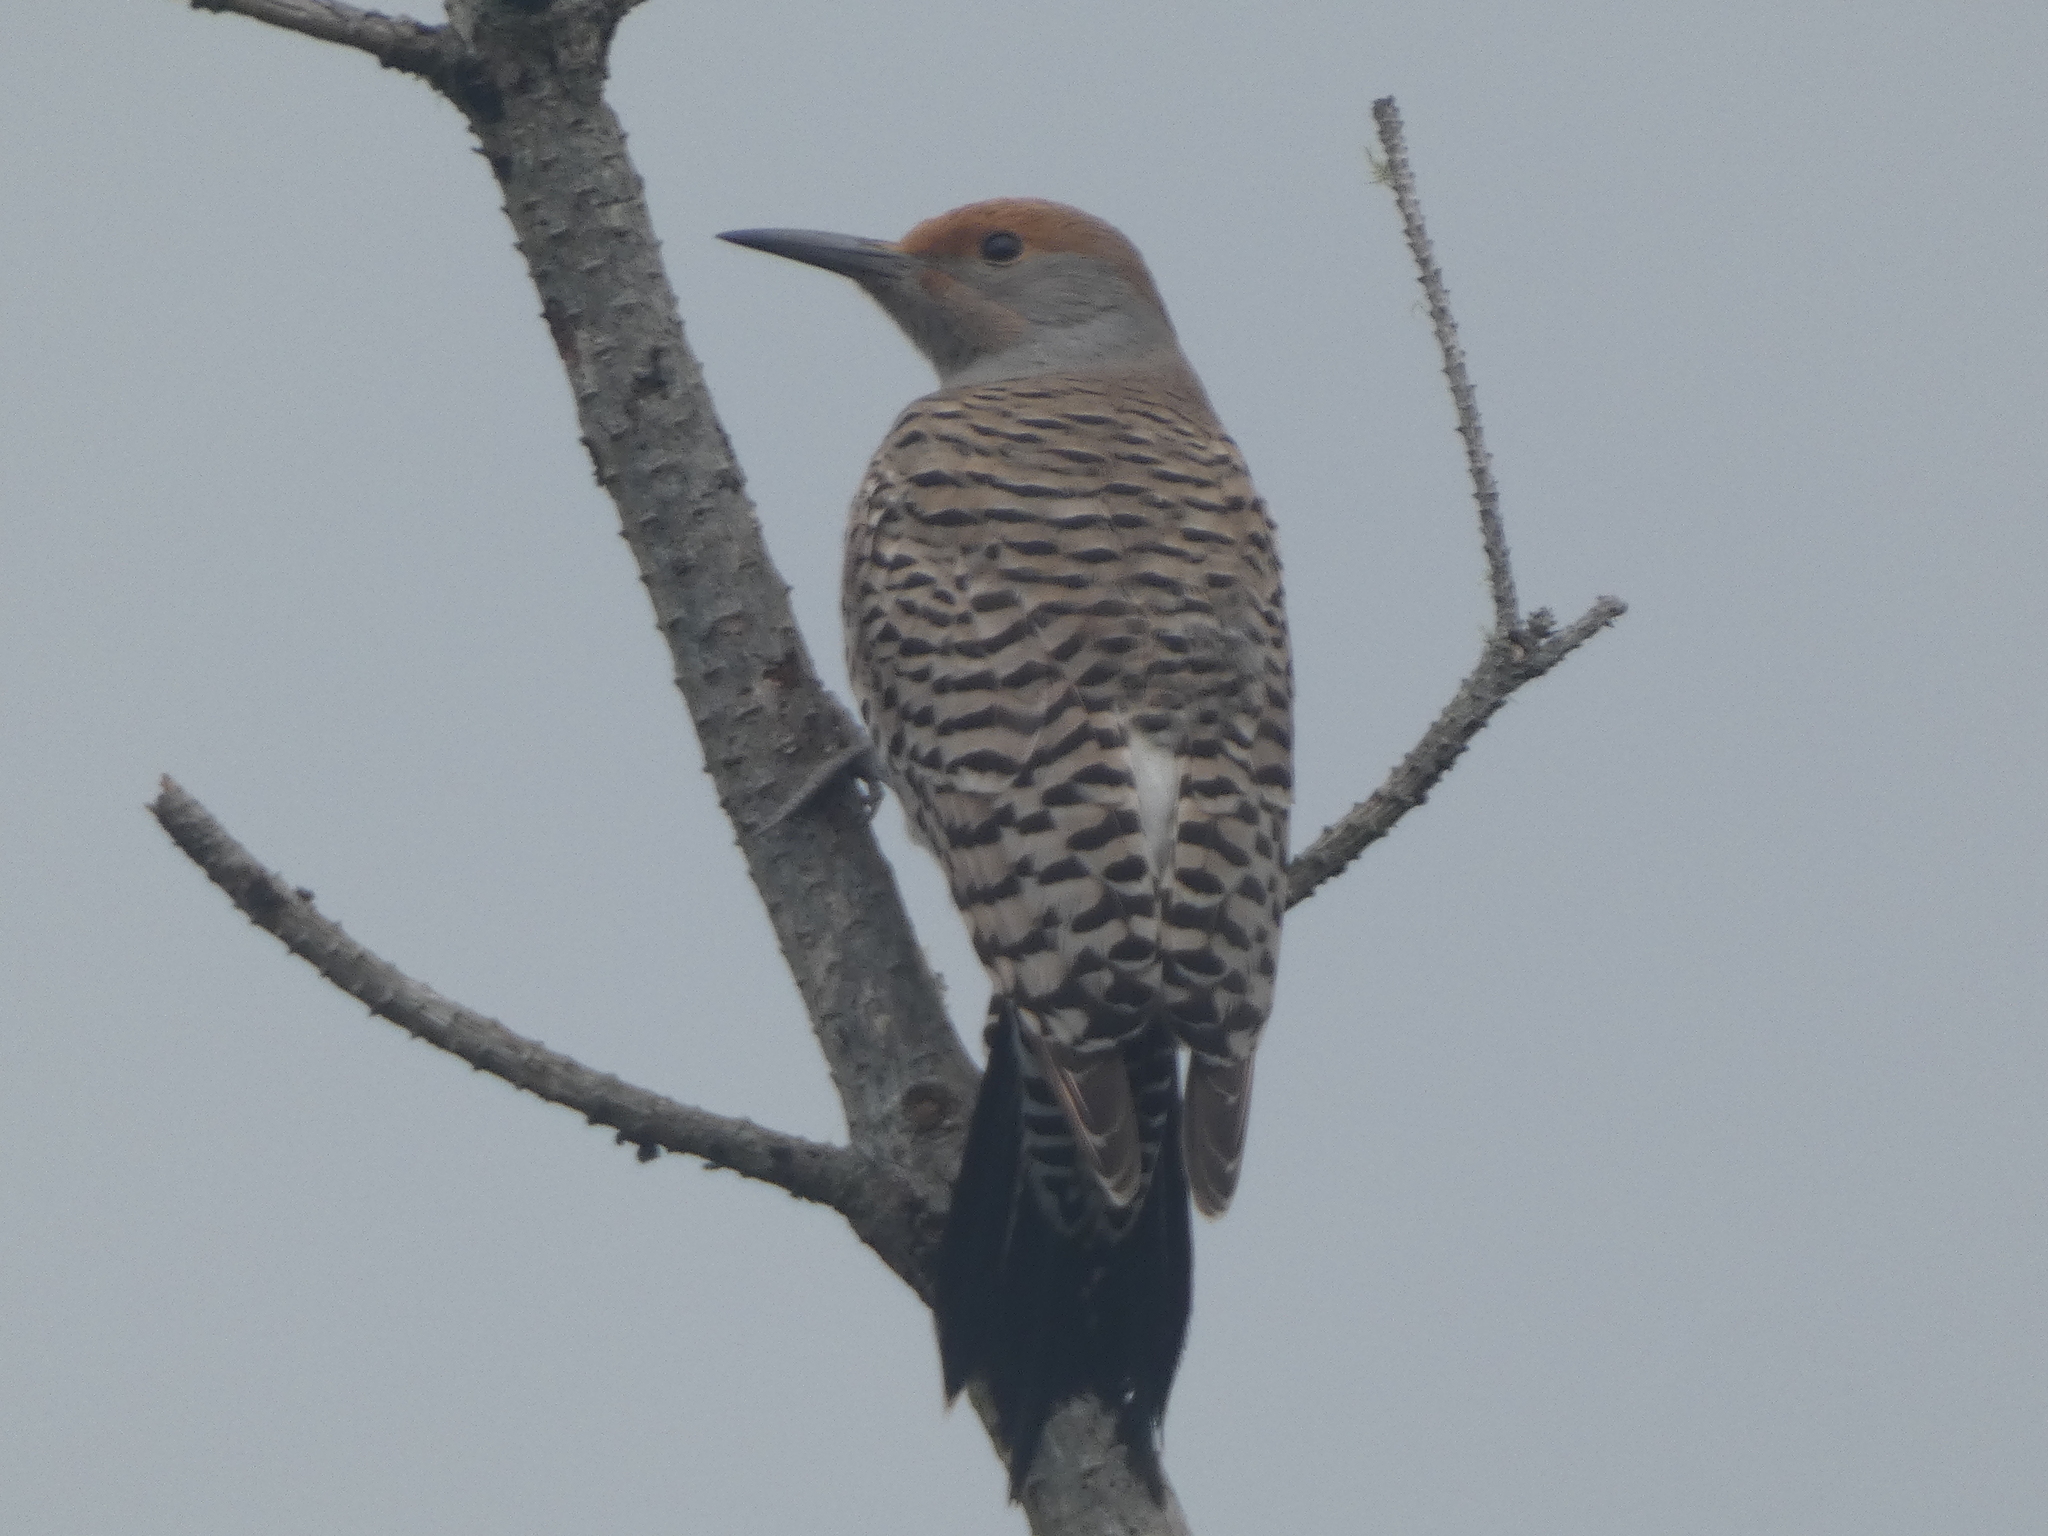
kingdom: Animalia
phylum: Chordata
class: Aves
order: Piciformes
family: Picidae
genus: Colaptes
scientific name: Colaptes auratus
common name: Northern flicker
